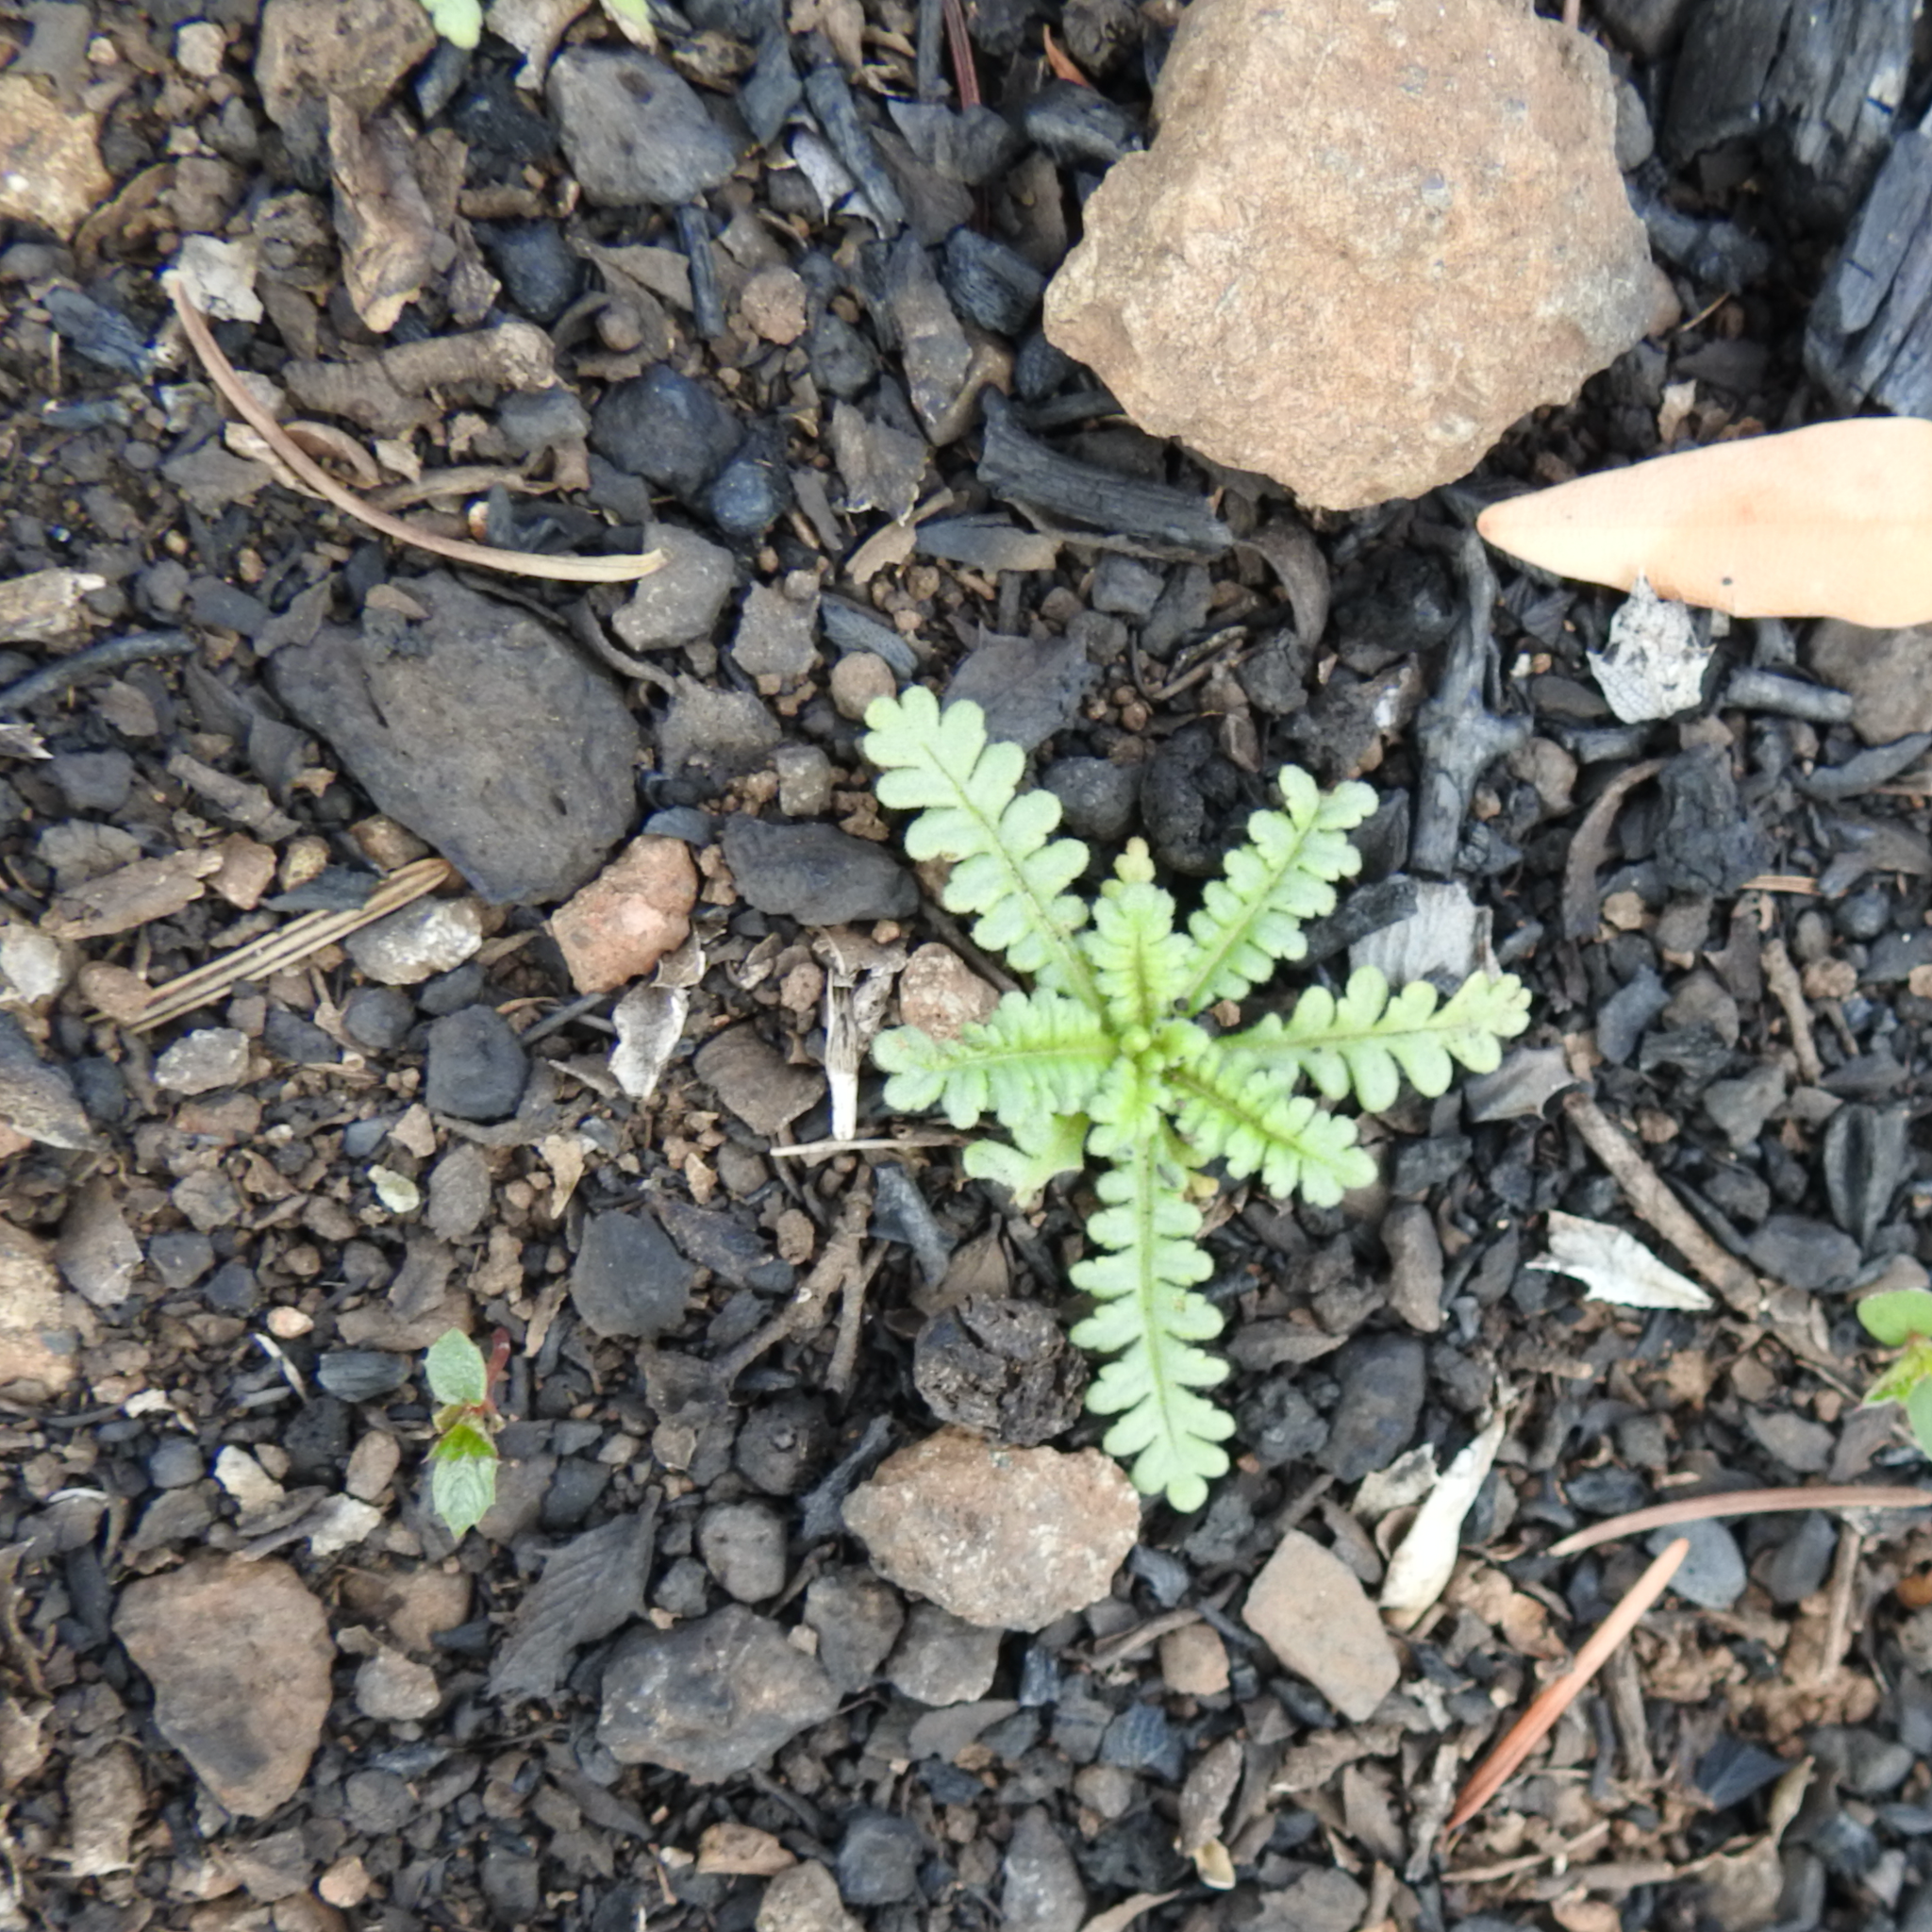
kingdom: Plantae
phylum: Tracheophyta
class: Magnoliopsida
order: Boraginales
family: Hydrophyllaceae
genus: Emmenanthe
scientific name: Emmenanthe penduliflora
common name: Whispering-bells
